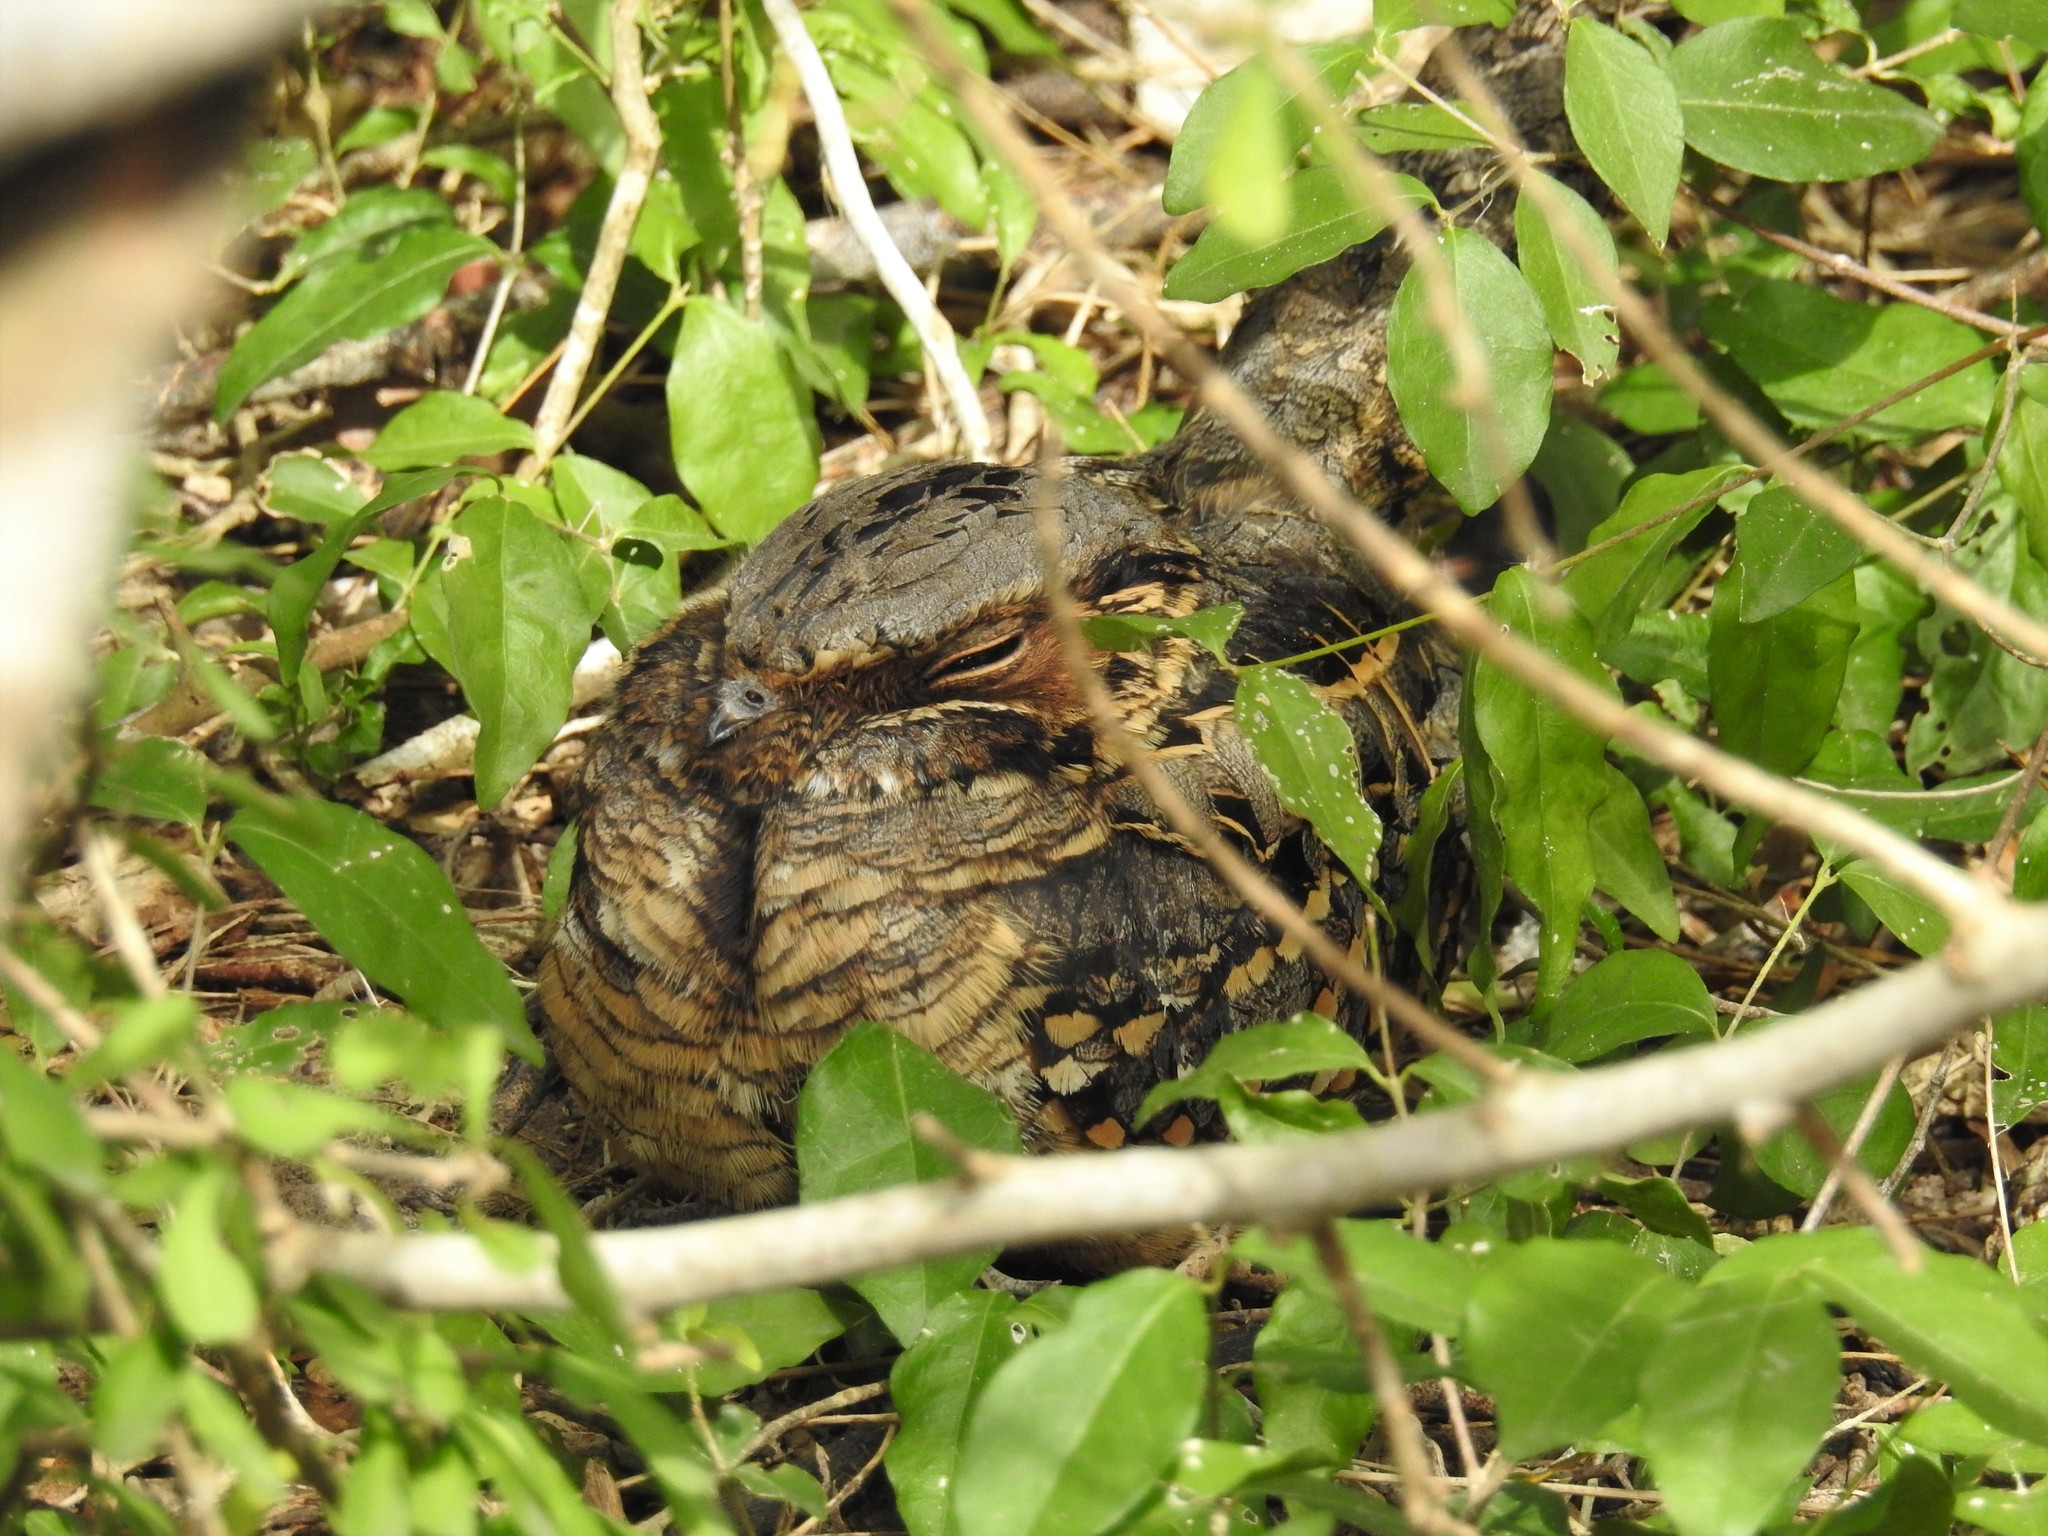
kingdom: Animalia
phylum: Chordata
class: Aves
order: Caprimulgiformes
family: Caprimulgidae
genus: Nyctidromus
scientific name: Nyctidromus albicollis
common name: Pauraque
